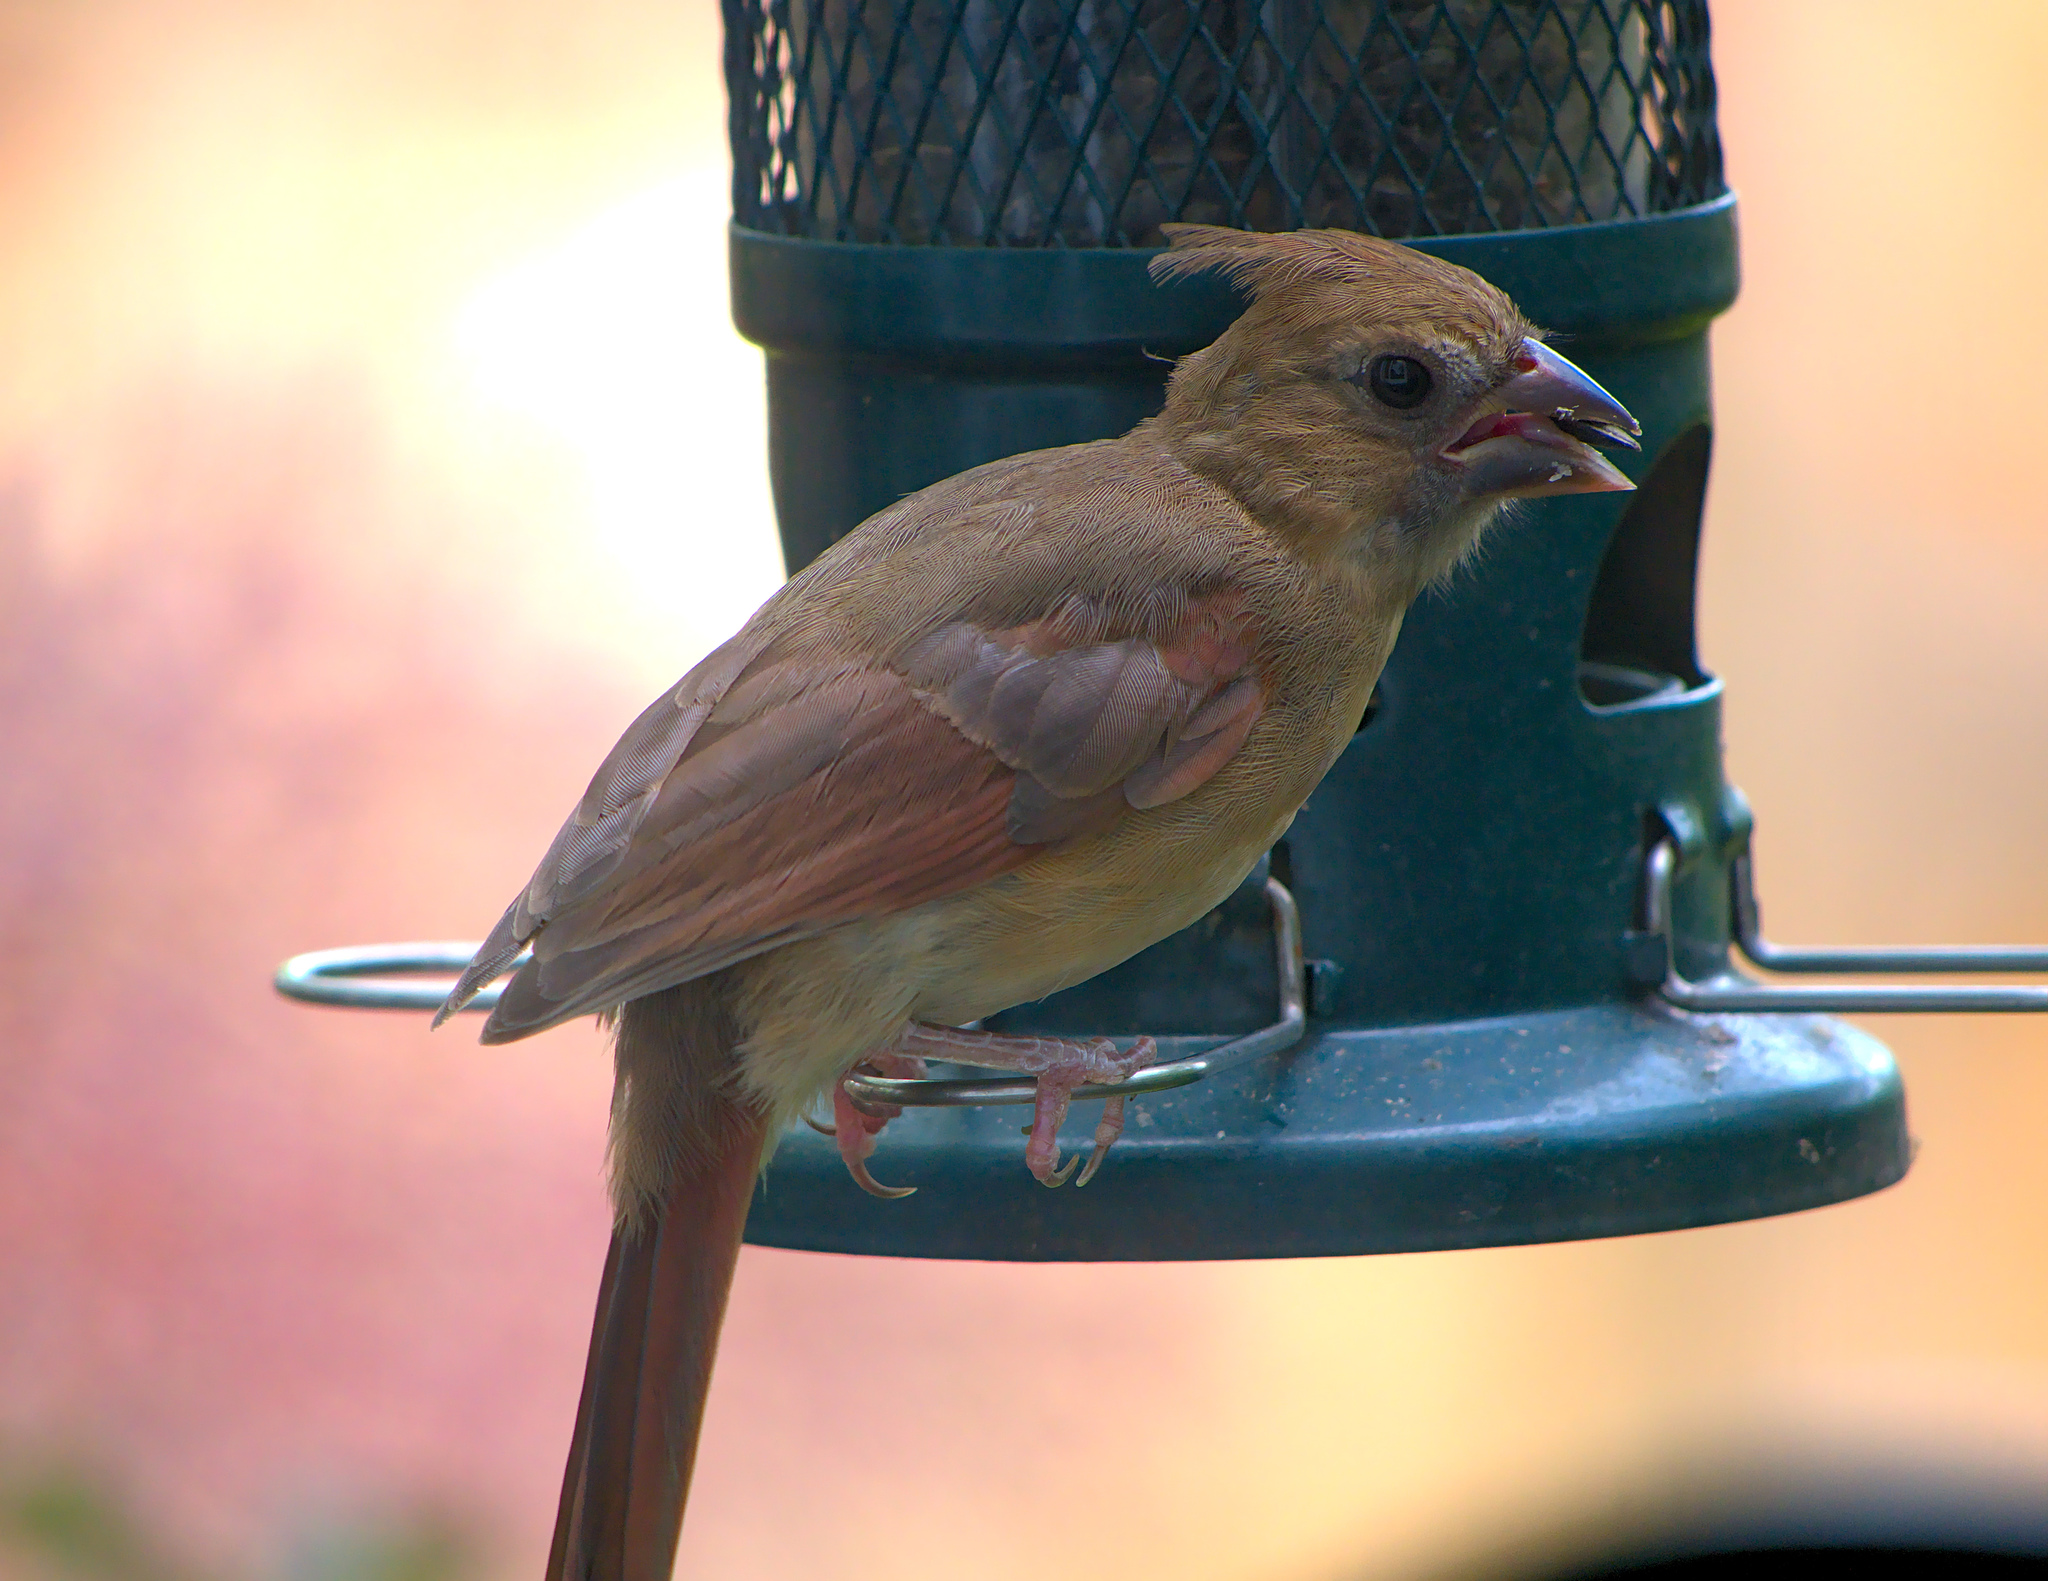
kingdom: Animalia
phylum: Chordata
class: Aves
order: Passeriformes
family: Cardinalidae
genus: Cardinalis
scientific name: Cardinalis cardinalis
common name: Northern cardinal
